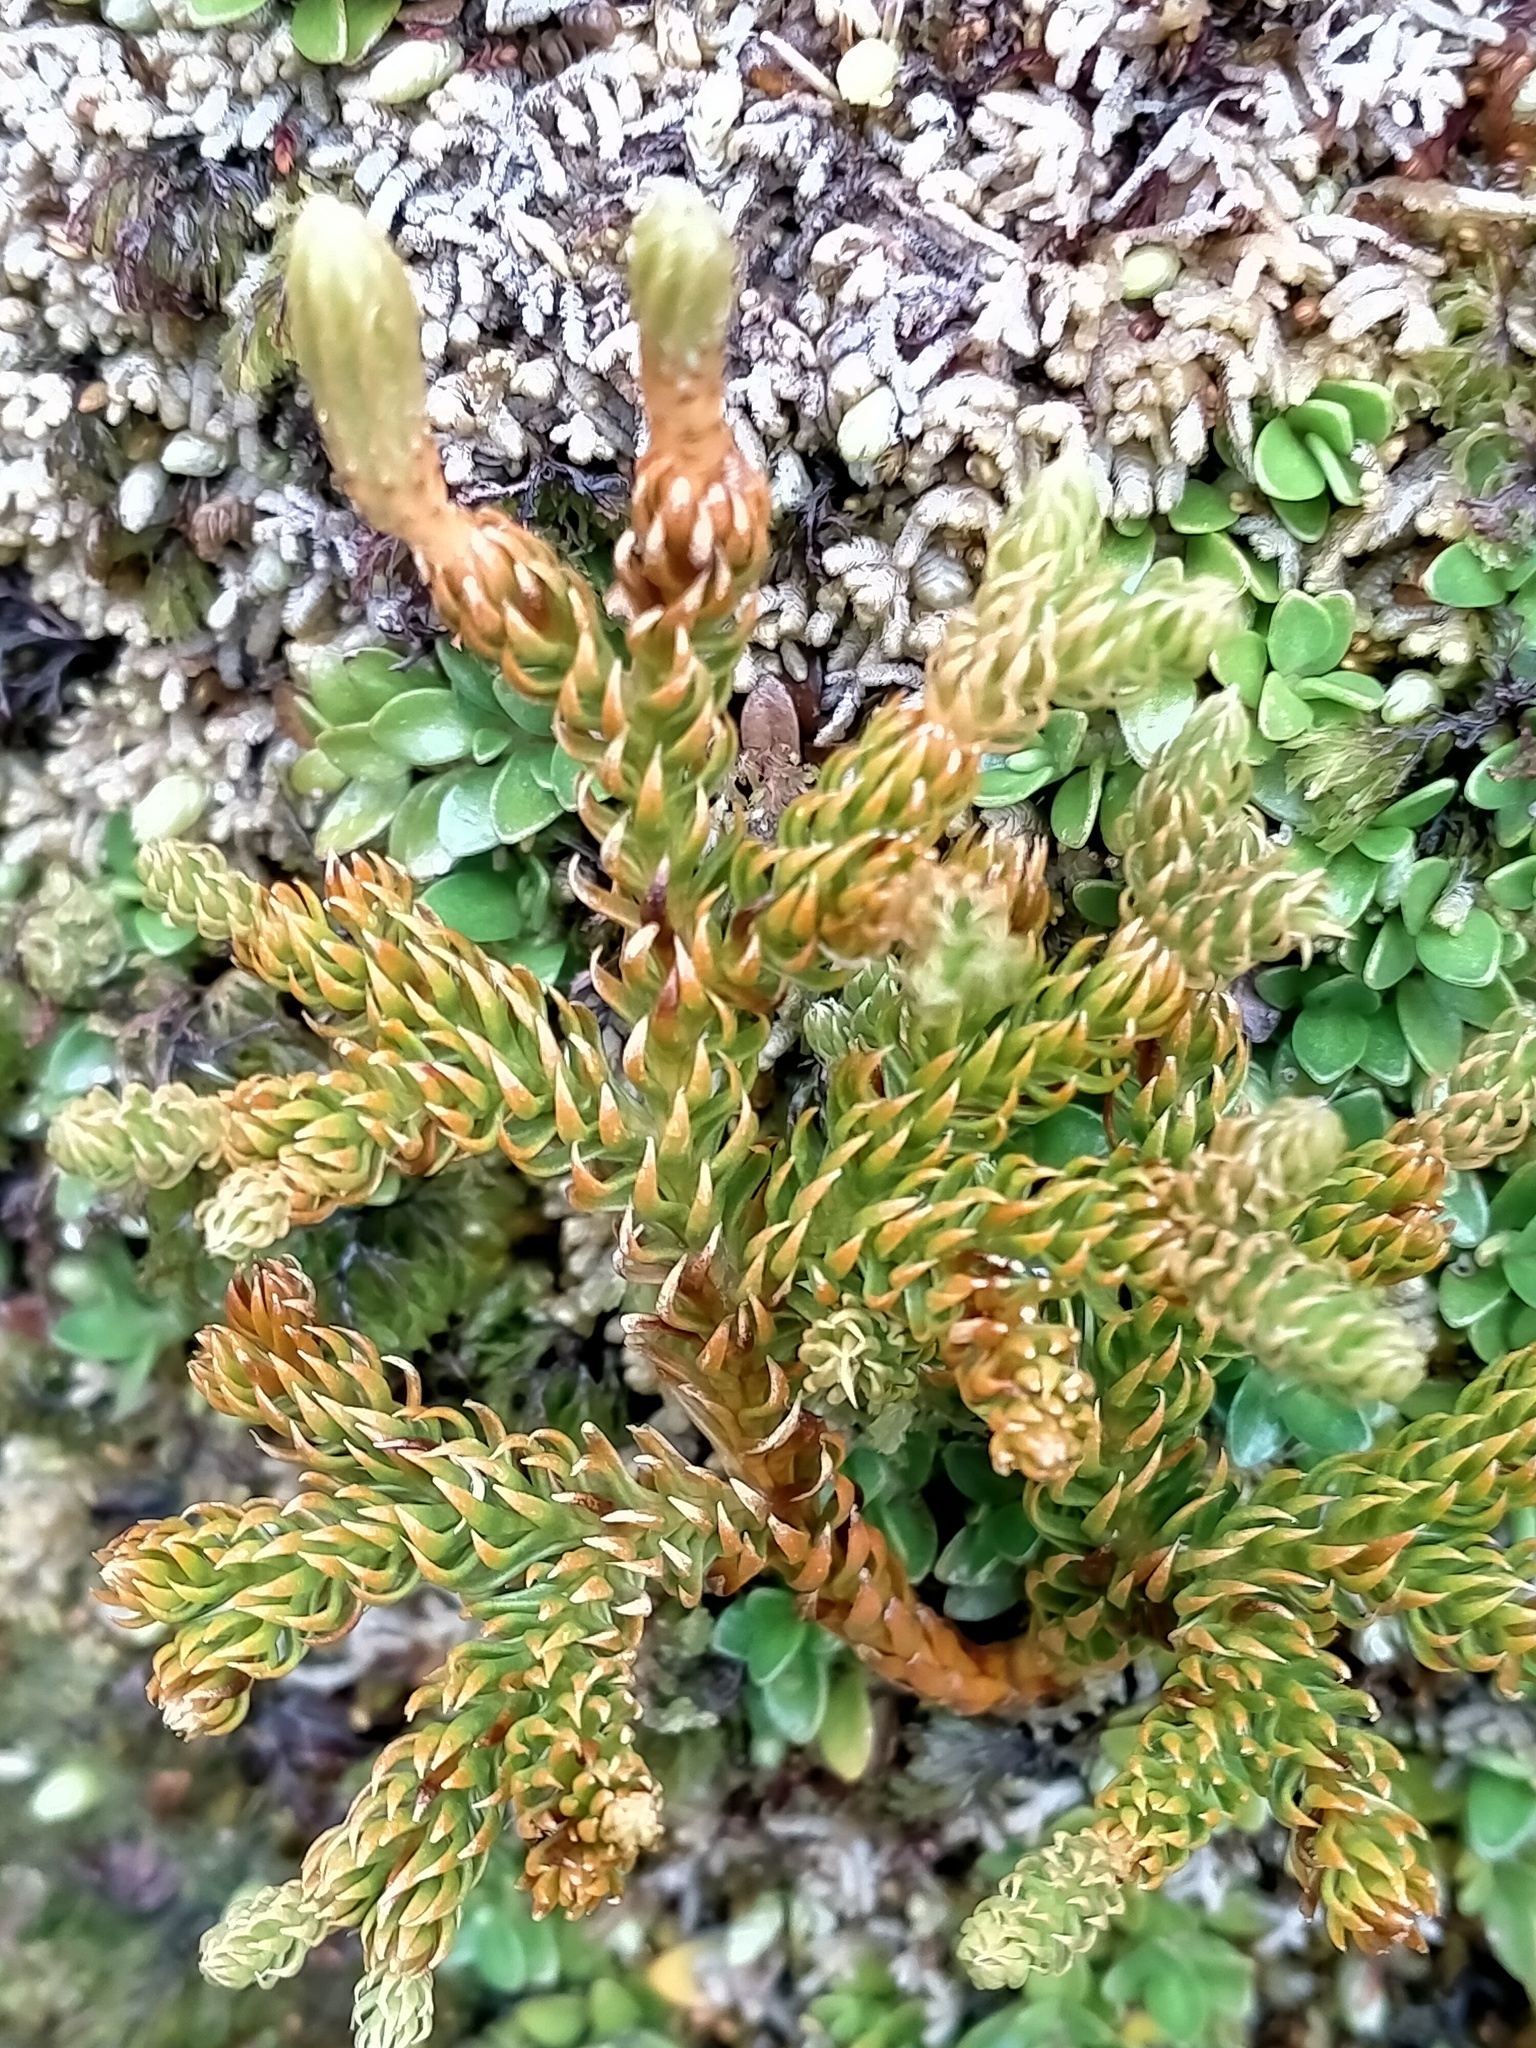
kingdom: Plantae
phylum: Tracheophyta
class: Lycopodiopsida
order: Lycopodiales
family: Lycopodiaceae
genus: Huperzia
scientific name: Huperzia australiana
